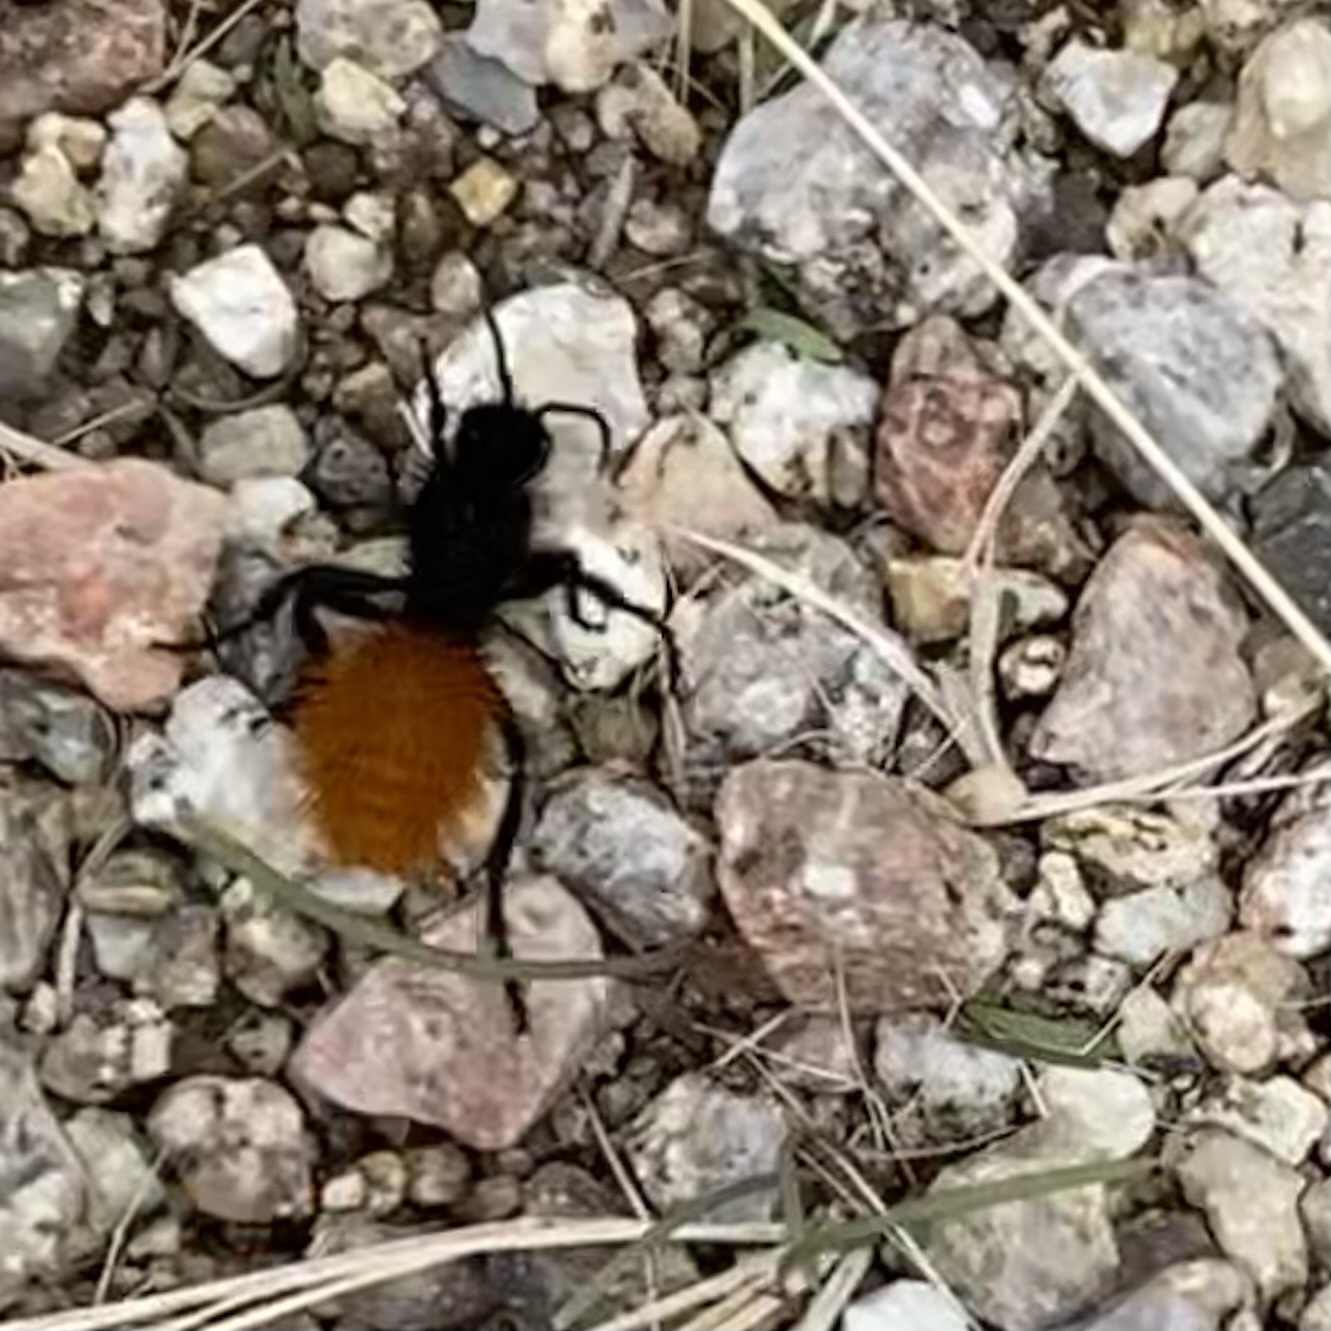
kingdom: Animalia
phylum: Arthropoda
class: Insecta
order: Hymenoptera
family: Mutillidae
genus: Dasymutilla
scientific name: Dasymutilla
